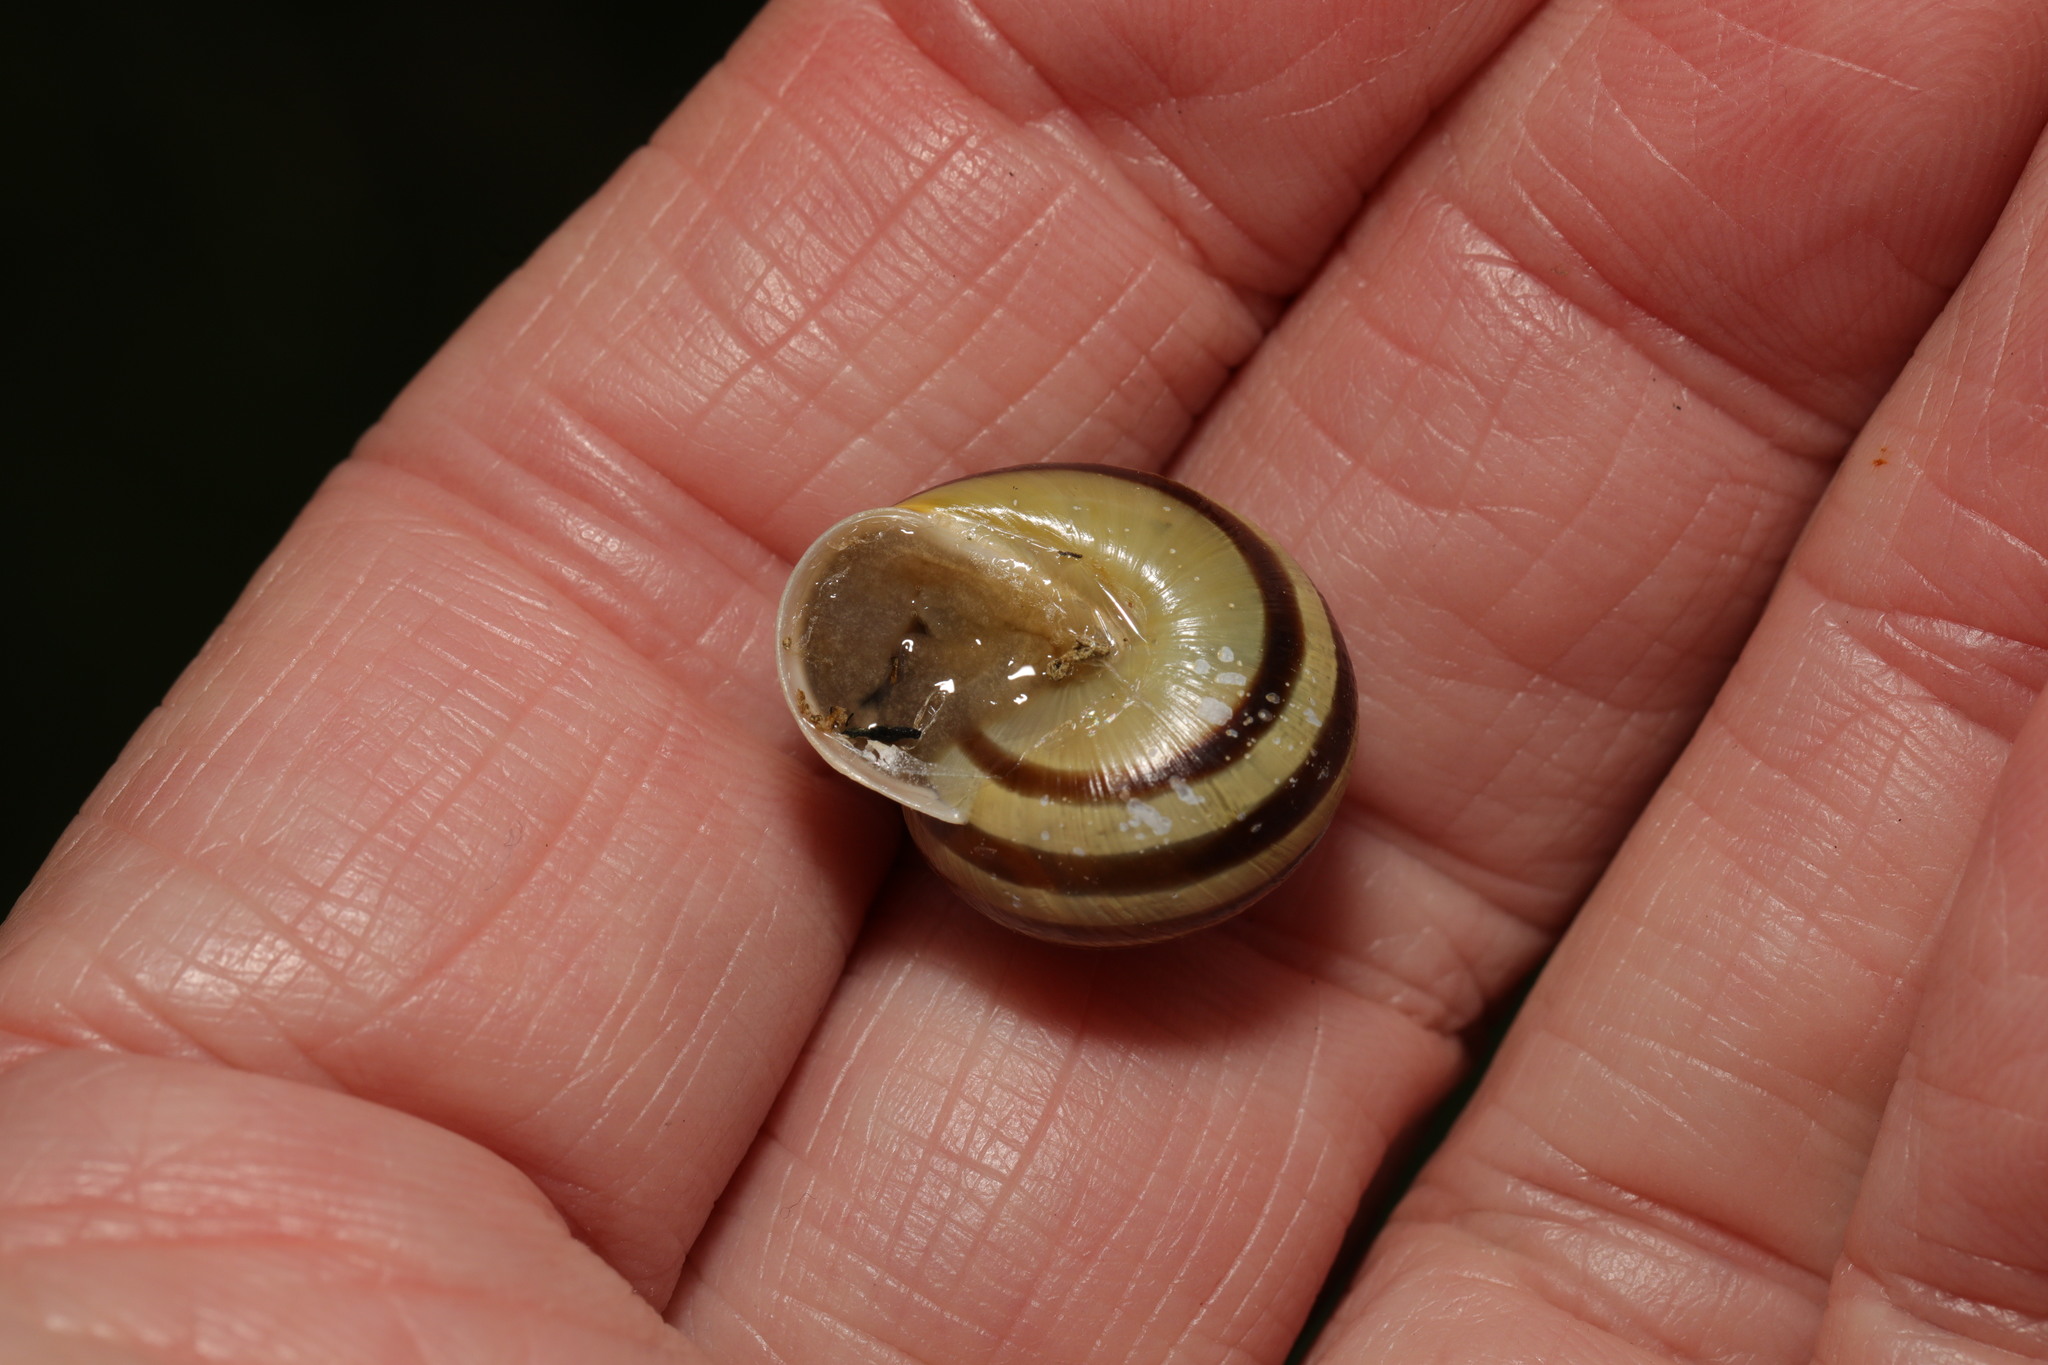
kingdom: Animalia
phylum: Mollusca
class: Gastropoda
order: Stylommatophora
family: Helicidae
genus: Cepaea
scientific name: Cepaea hortensis
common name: White-lip gardensnail
